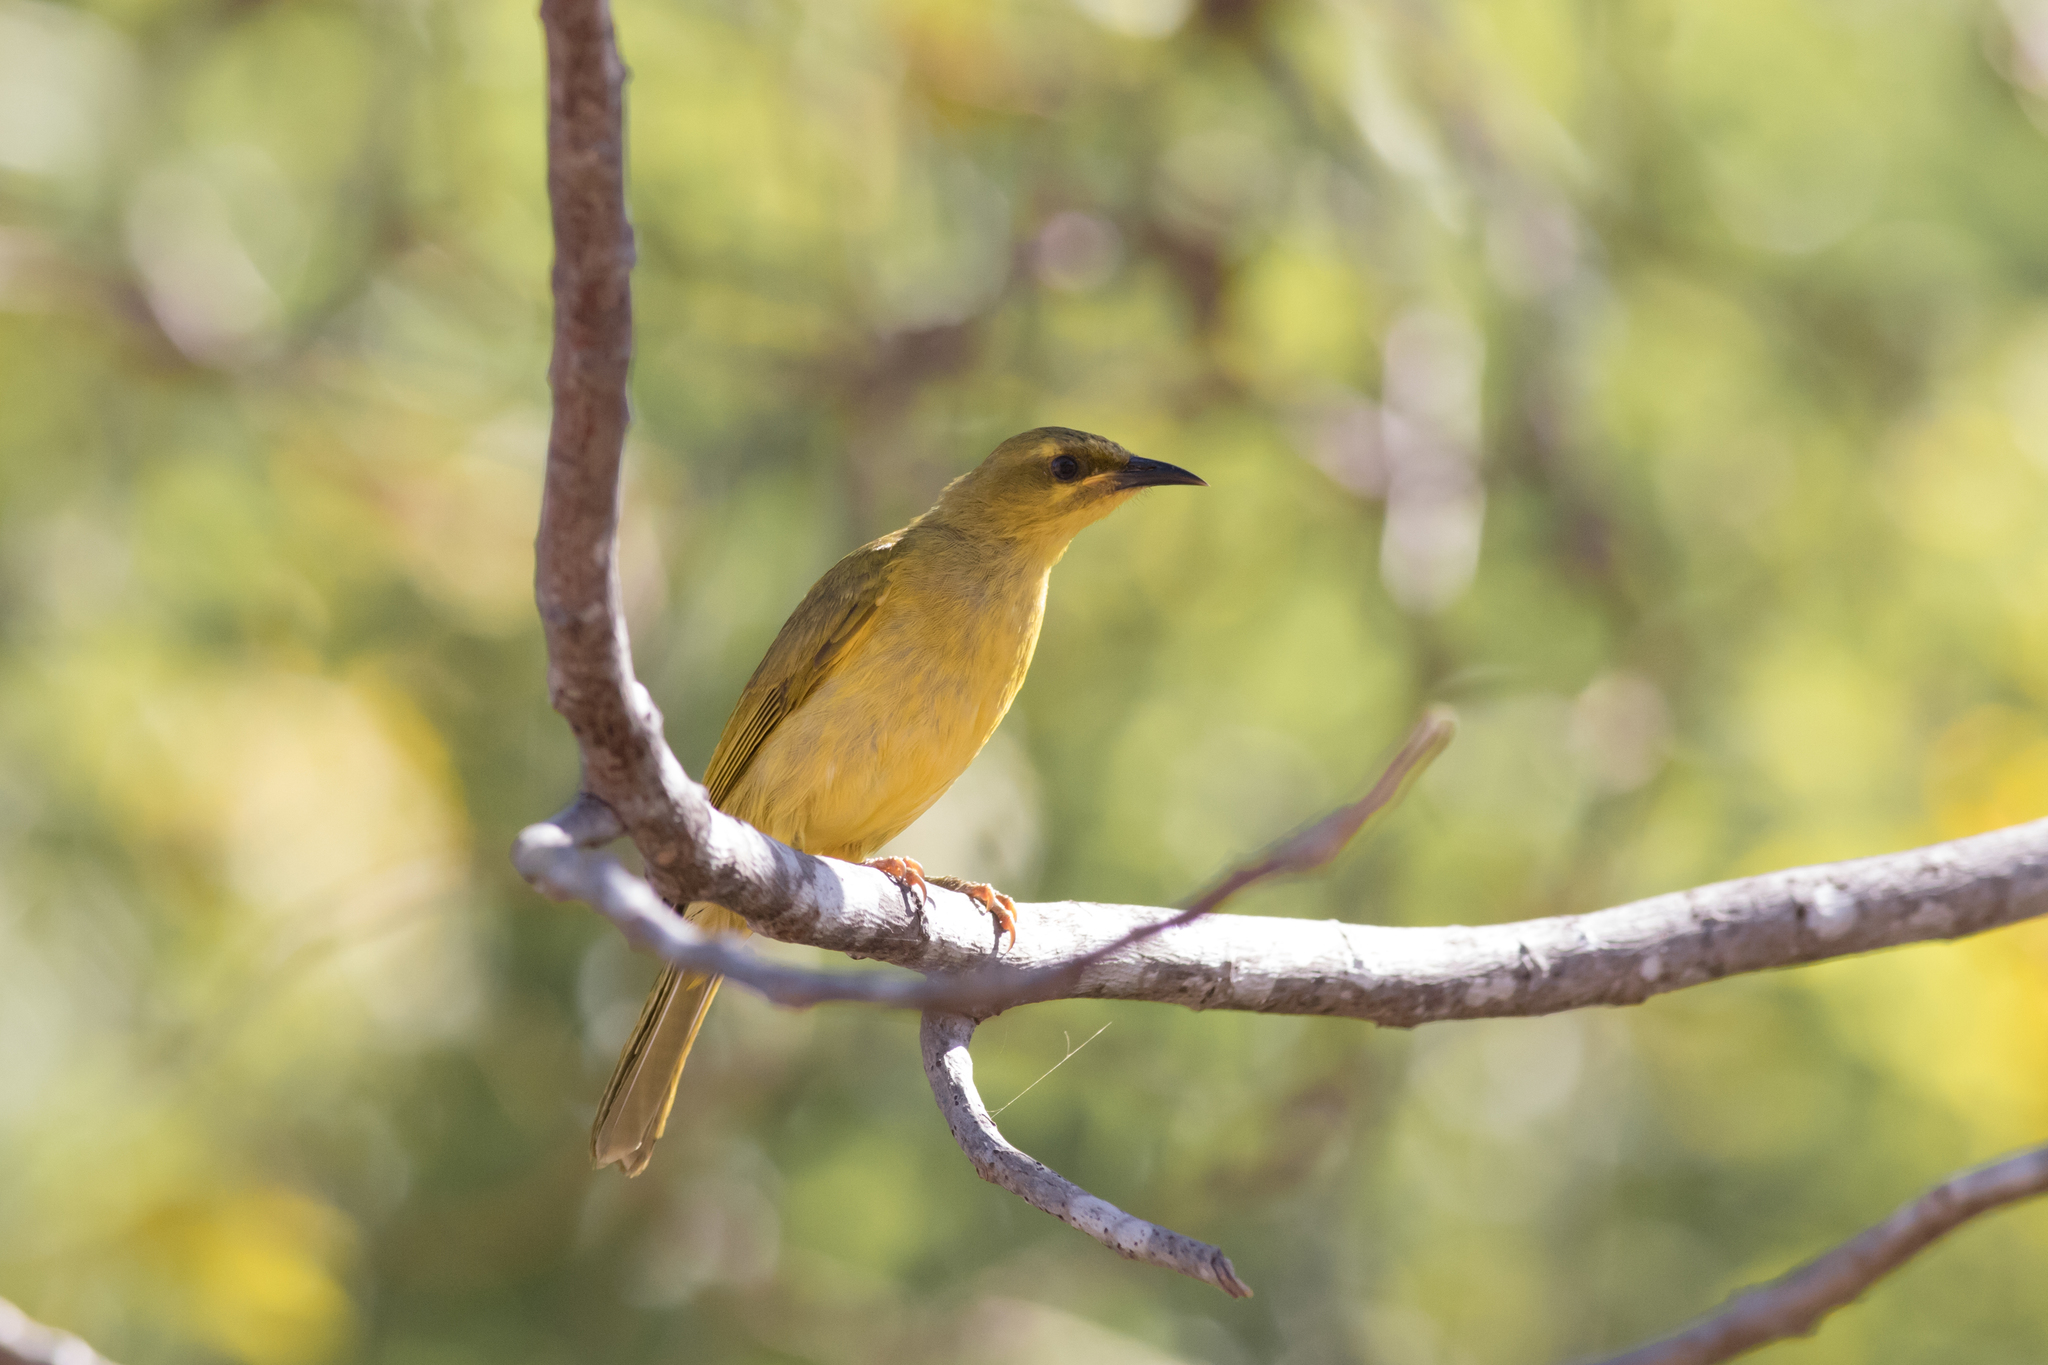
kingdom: Animalia
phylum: Chordata
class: Aves
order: Passeriformes
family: Meliphagidae
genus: Stomiopera
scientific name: Stomiopera flava
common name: Yellow honeyeater
